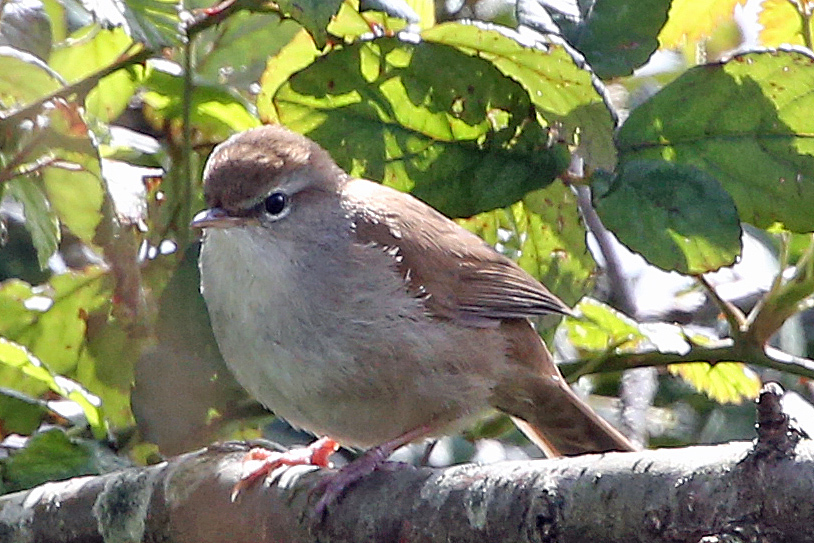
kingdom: Animalia
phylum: Chordata
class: Aves
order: Passeriformes
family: Cettiidae
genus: Cettia
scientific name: Cettia cetti
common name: Cetti's warbler
